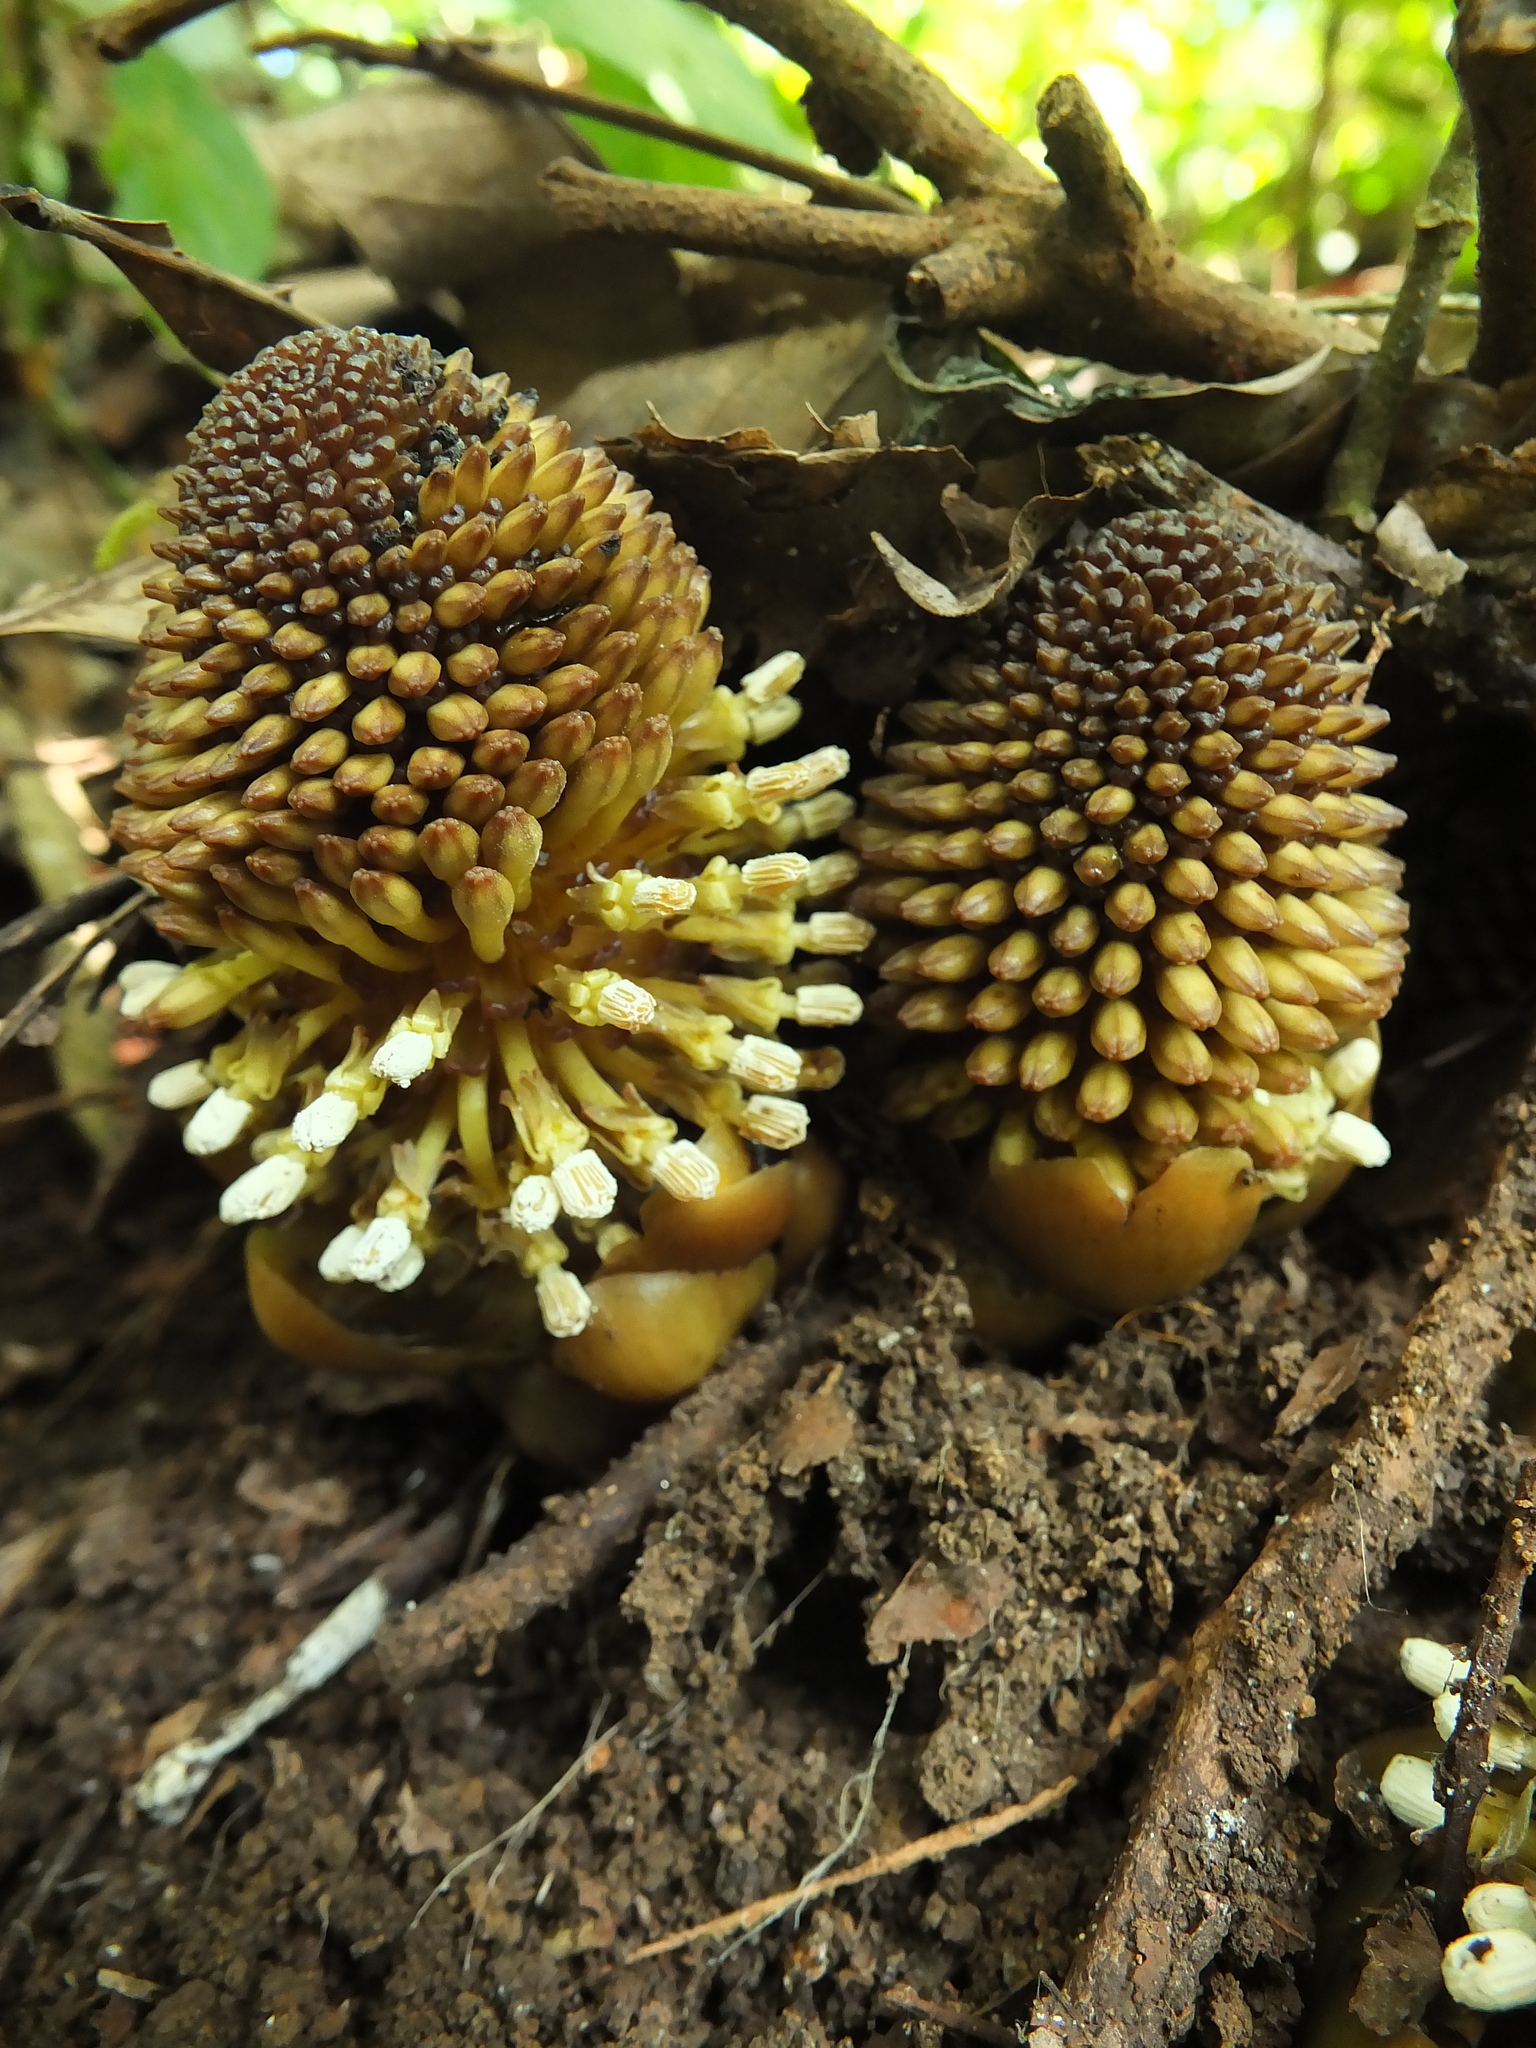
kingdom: Plantae
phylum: Tracheophyta
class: Magnoliopsida
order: Santalales
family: Balanophoraceae
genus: Balanophora
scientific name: Balanophora fungosa
